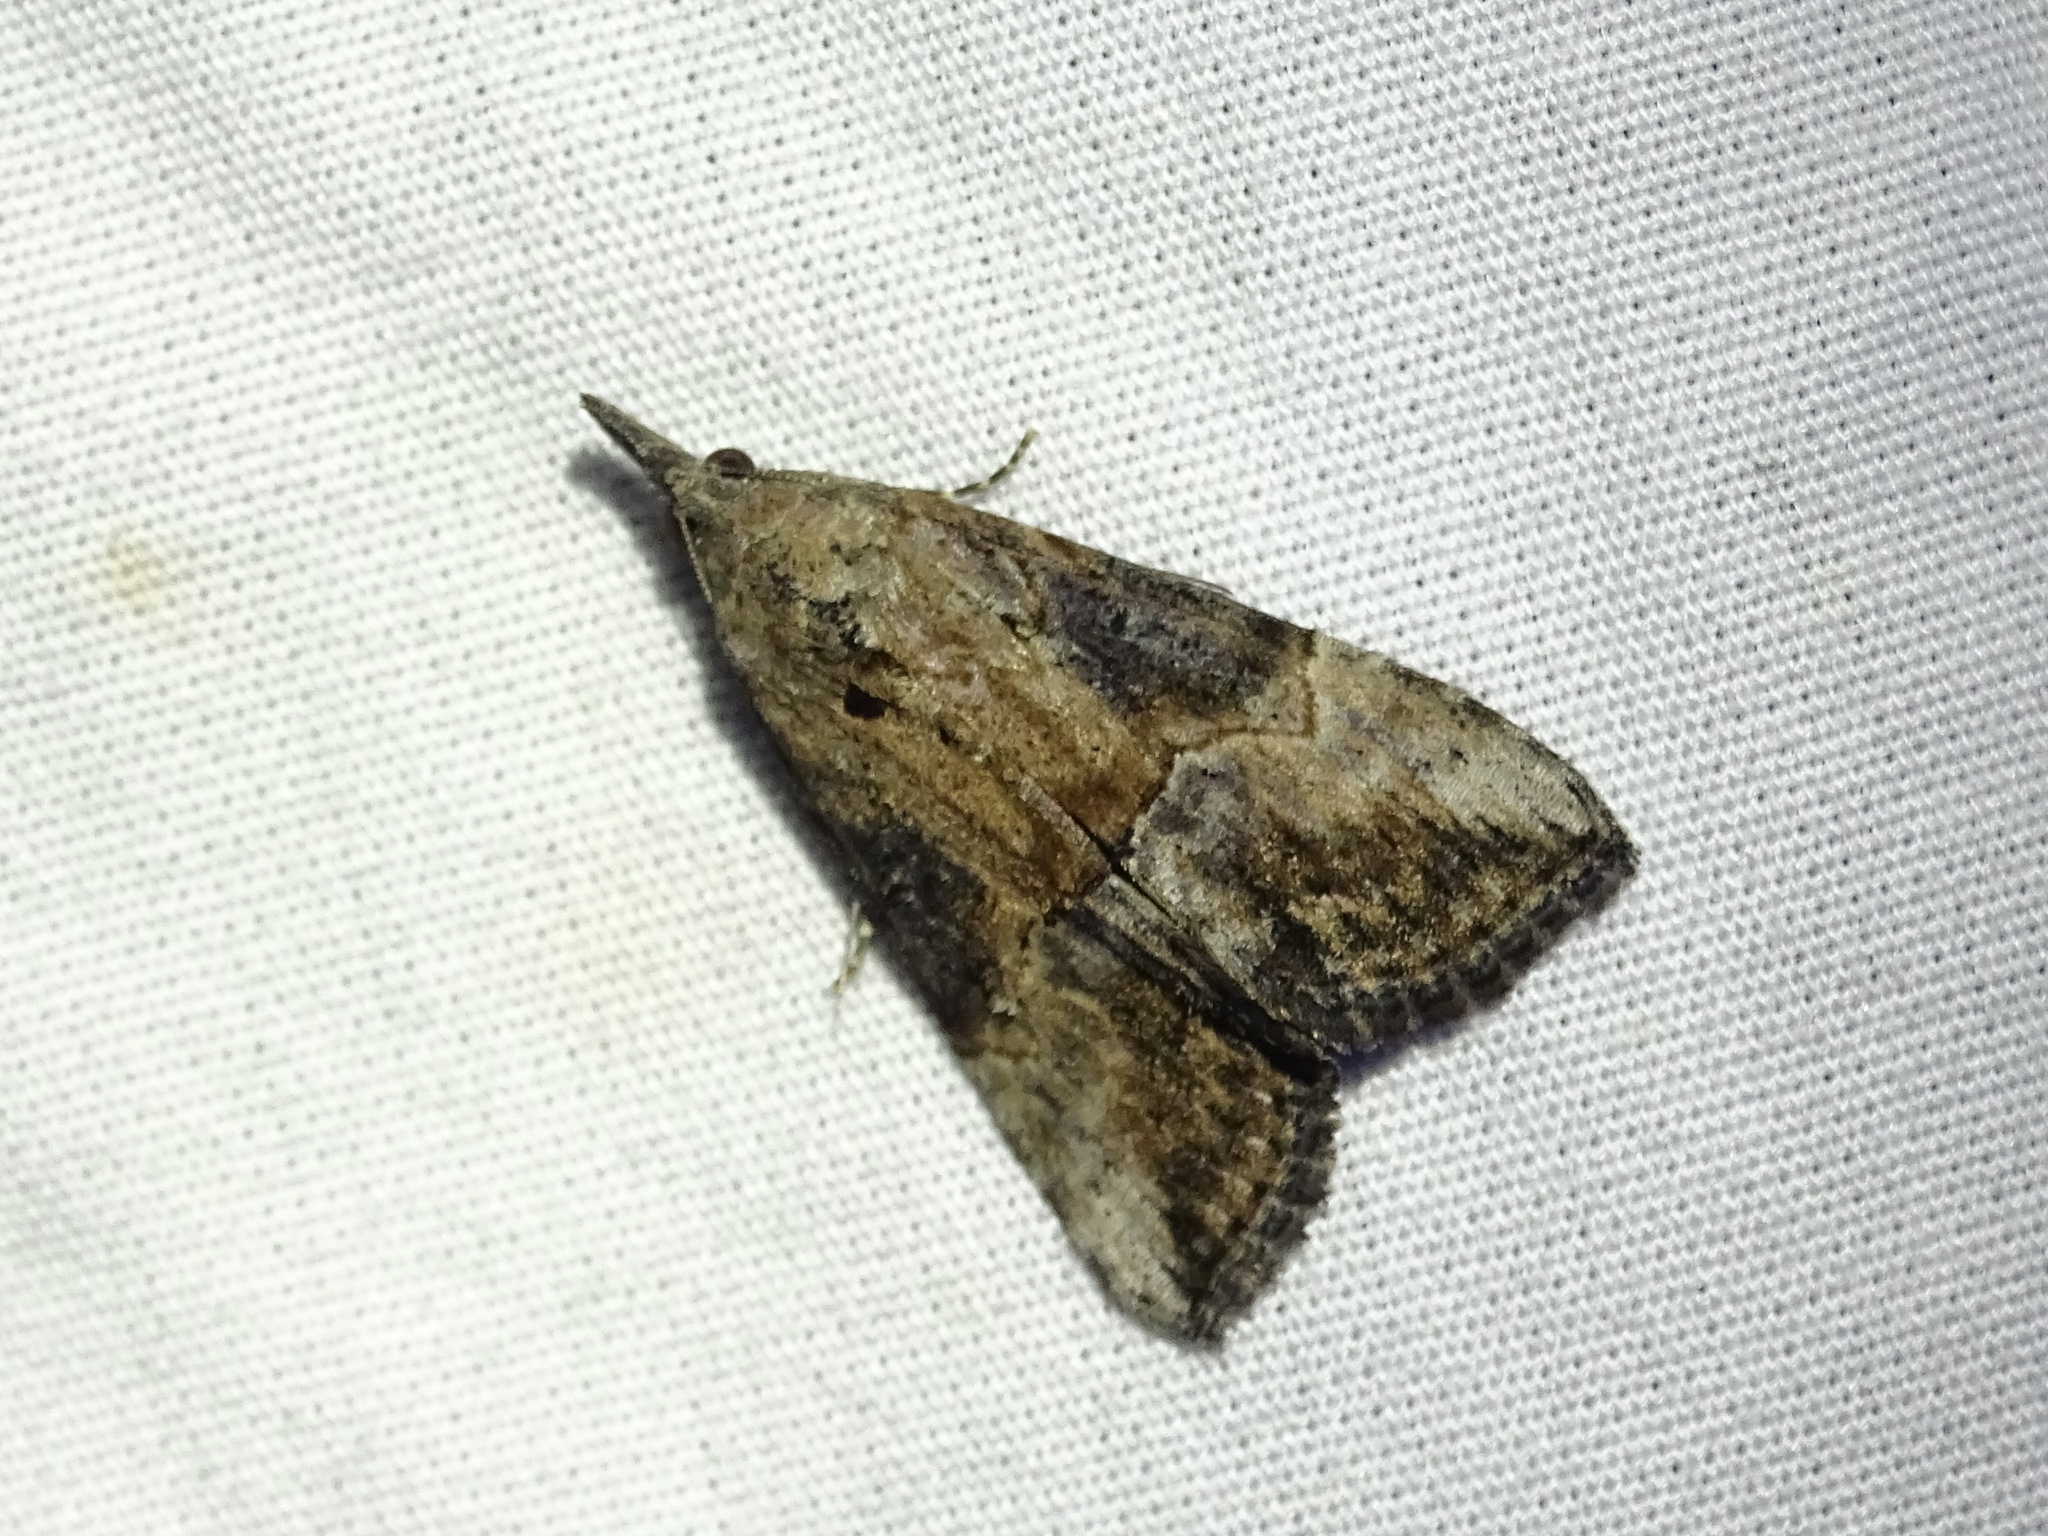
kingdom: Animalia
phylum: Arthropoda
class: Insecta
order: Lepidoptera
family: Erebidae
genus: Hypena
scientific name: Hypena scabra
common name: Green cloverworm
